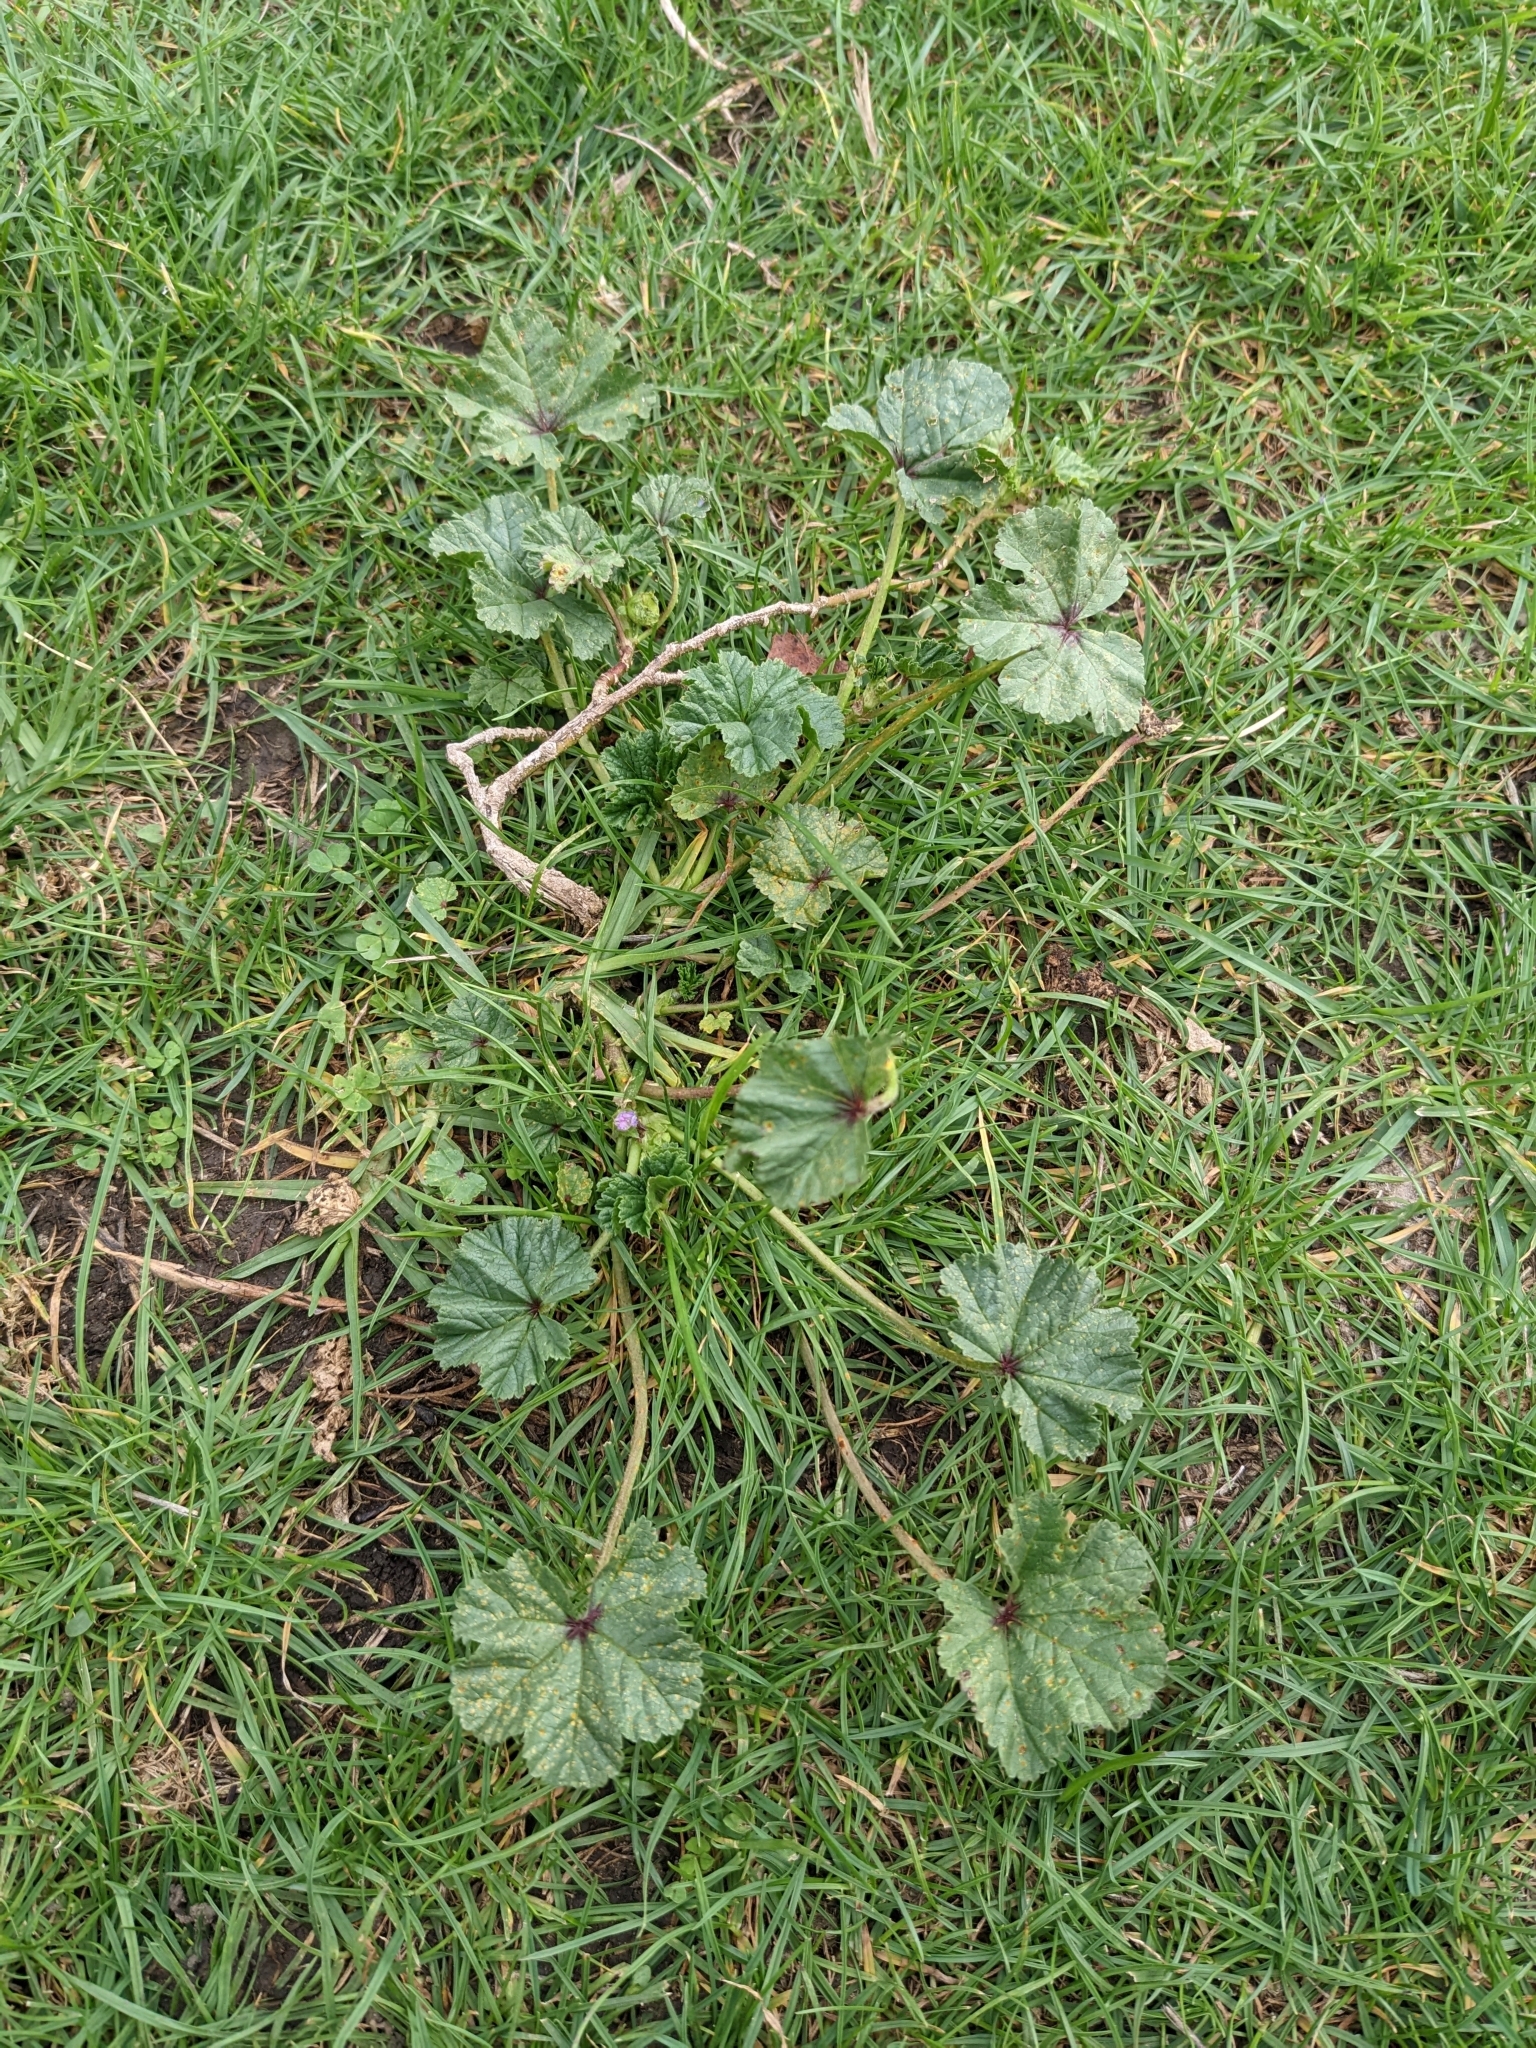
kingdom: Plantae
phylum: Tracheophyta
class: Magnoliopsida
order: Malvales
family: Malvaceae
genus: Malva
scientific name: Malva
